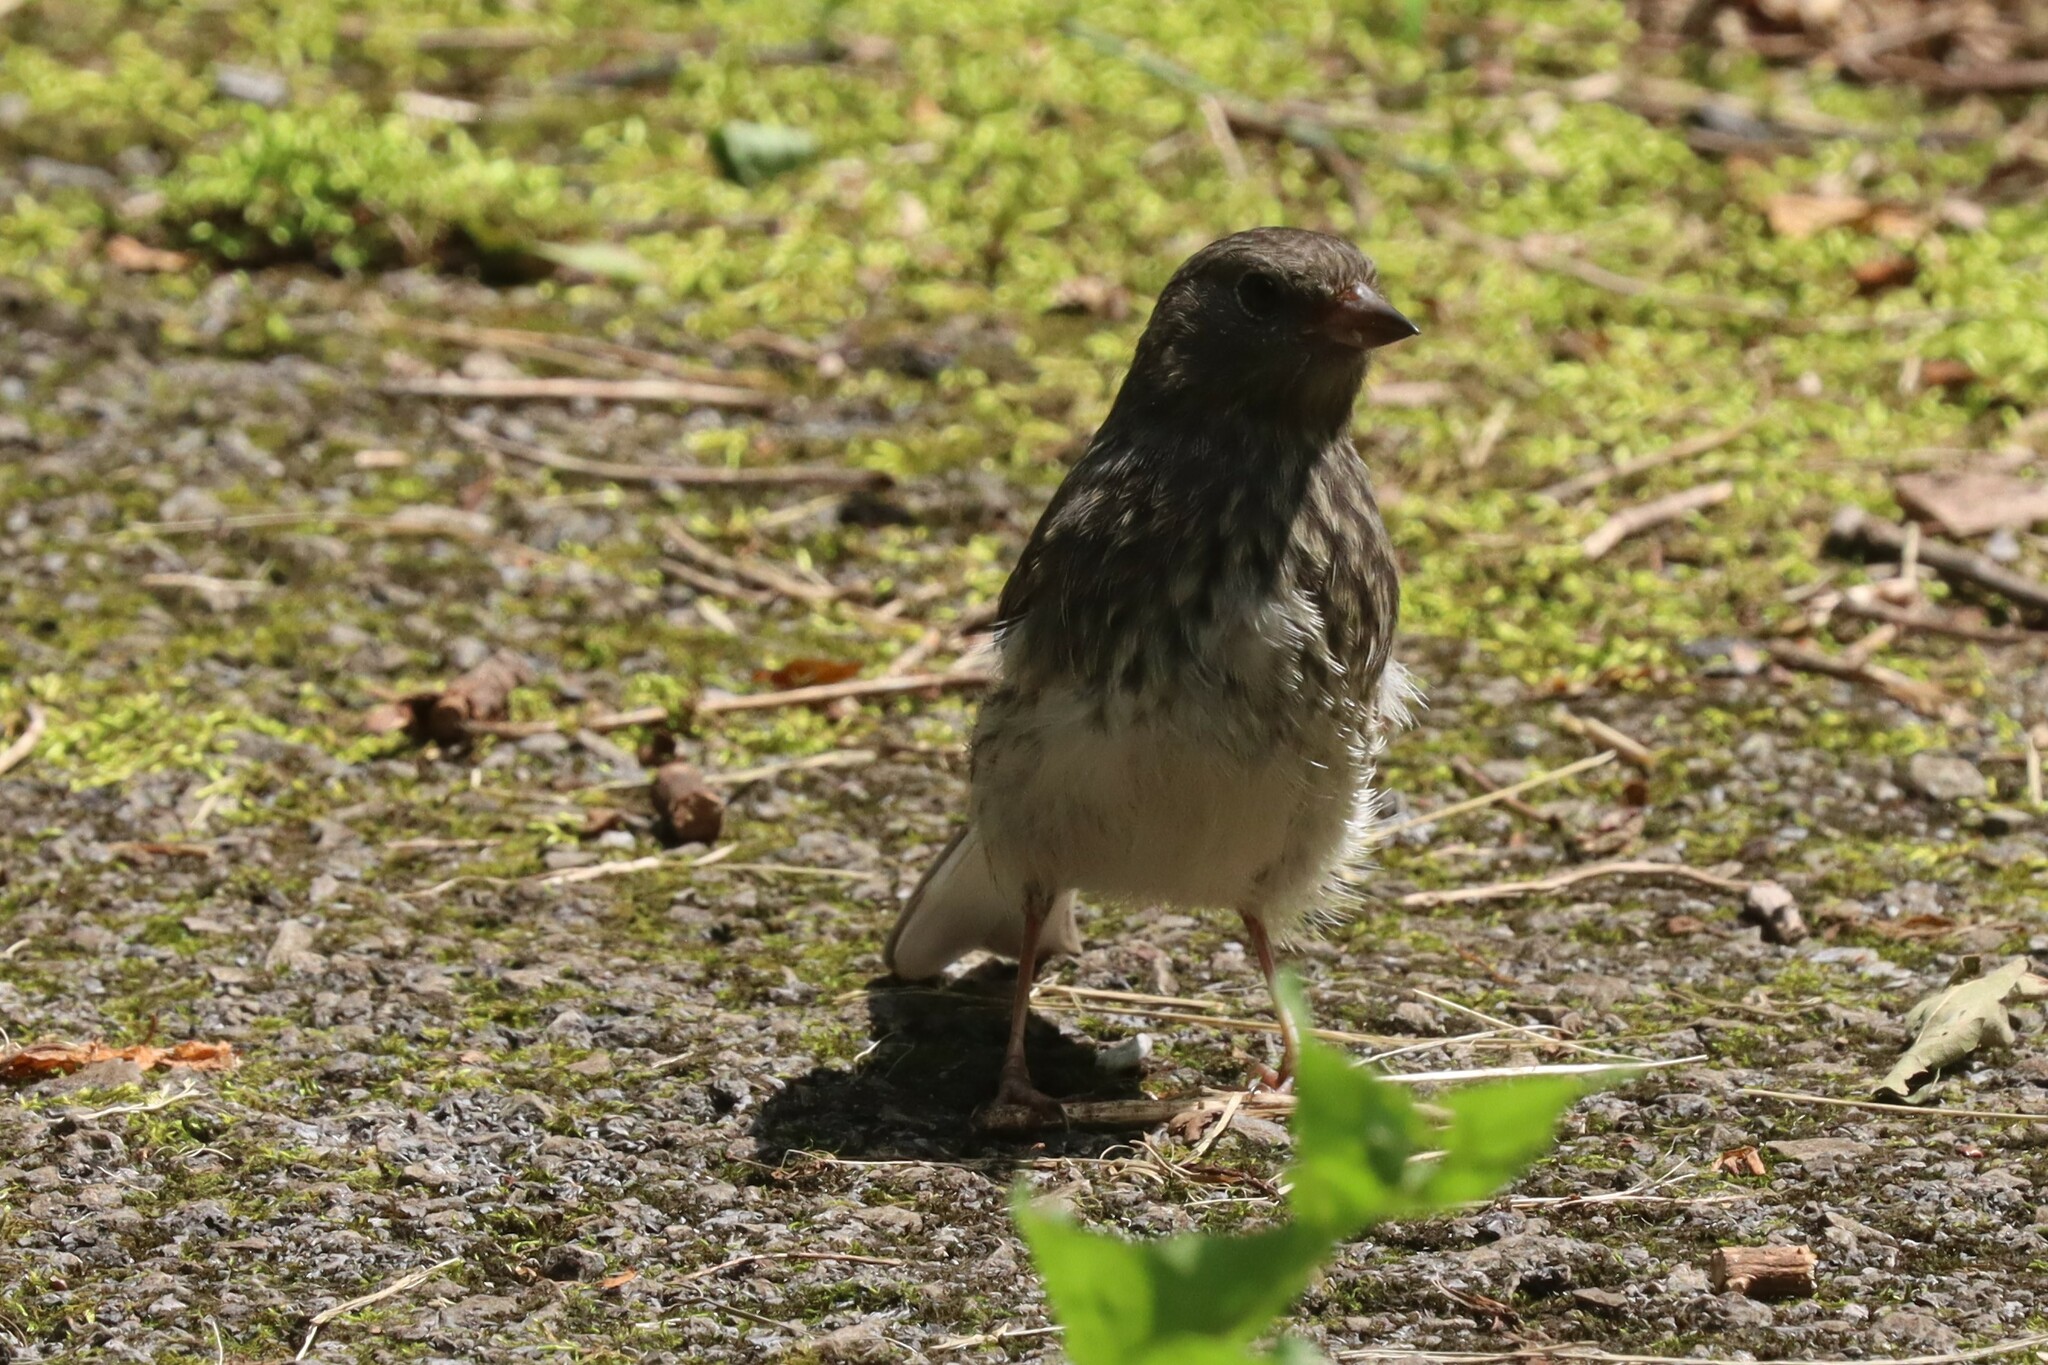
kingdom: Animalia
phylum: Chordata
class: Aves
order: Passeriformes
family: Passerellidae
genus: Junco
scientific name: Junco hyemalis
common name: Dark-eyed junco
